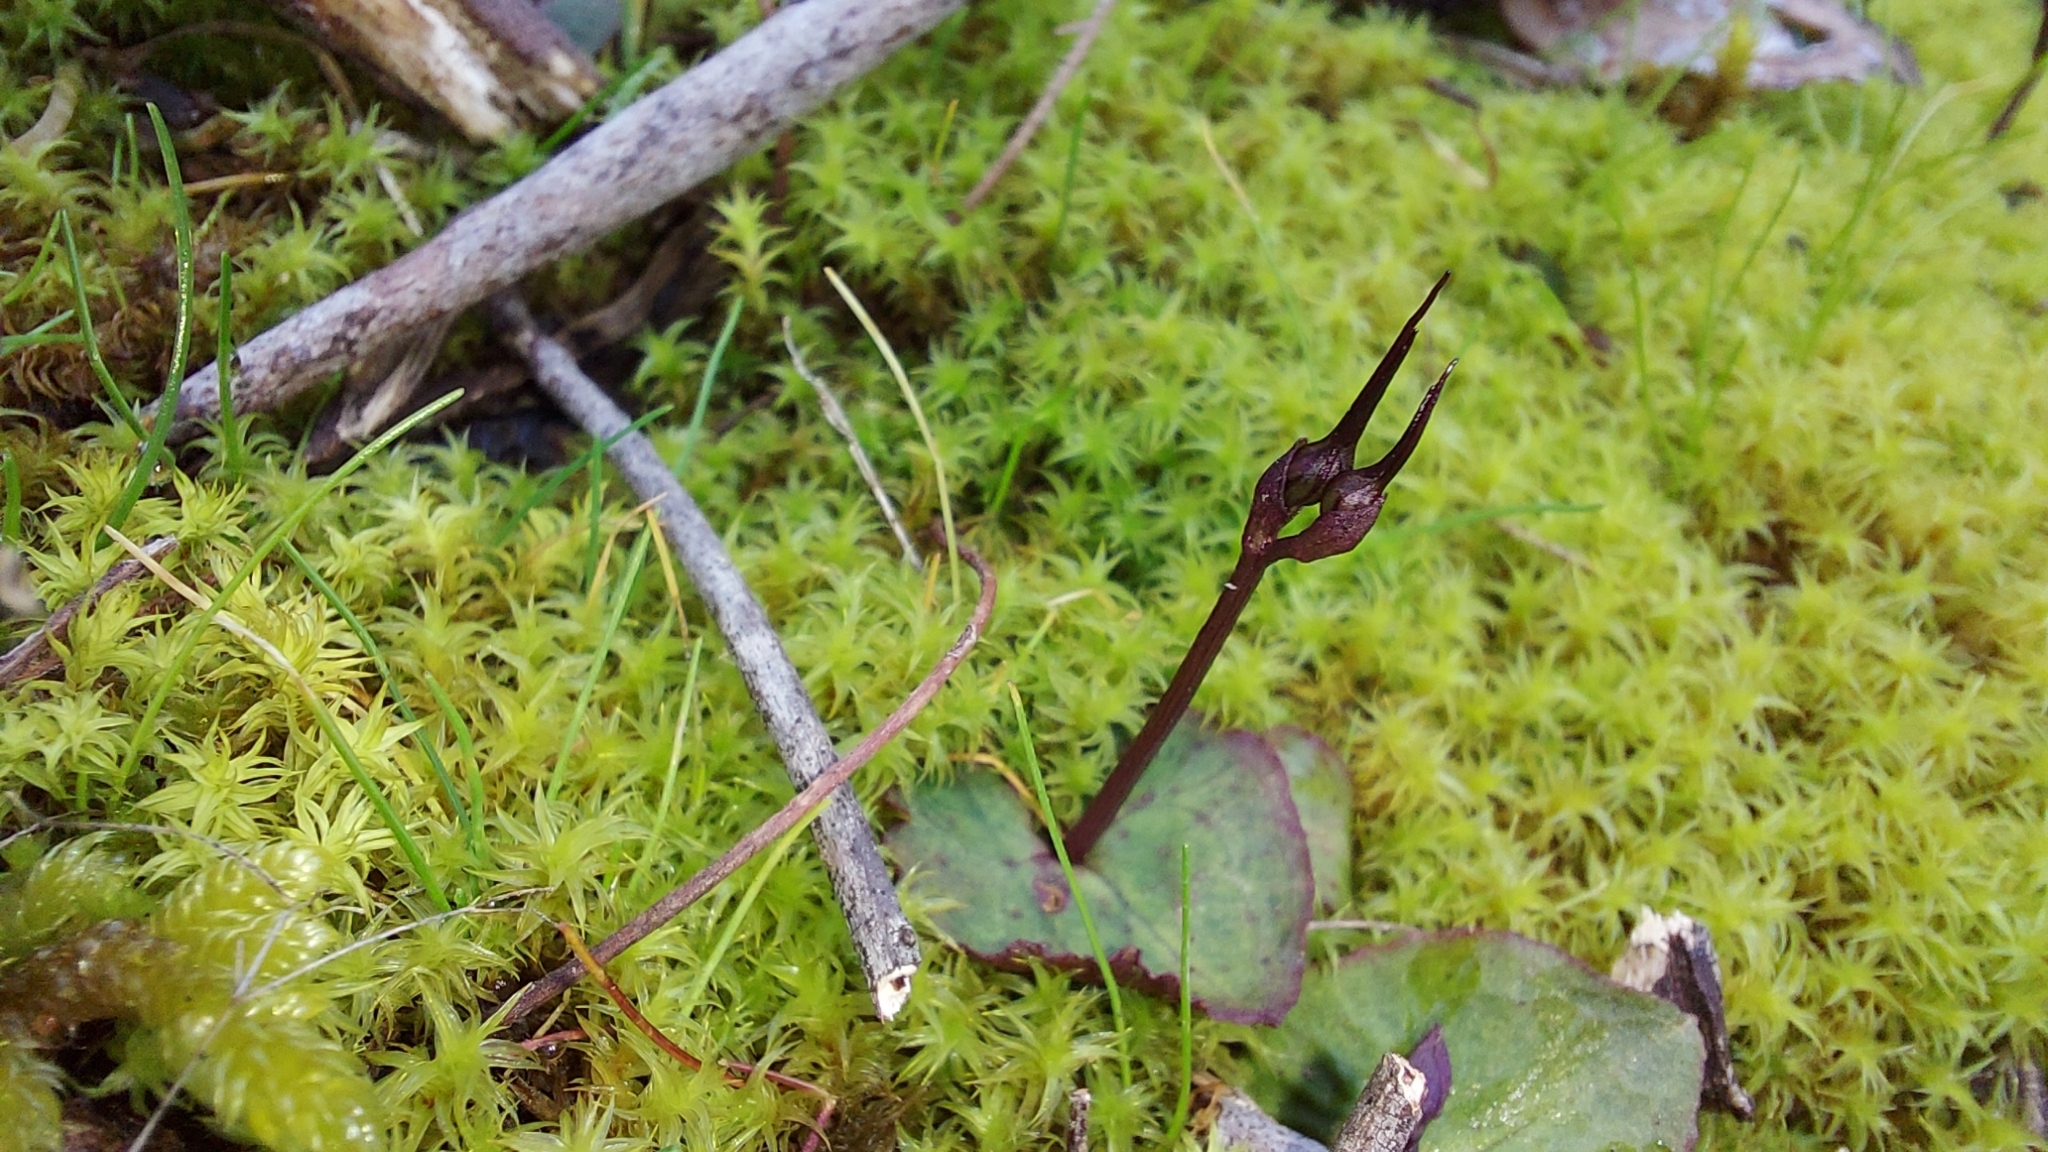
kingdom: Plantae
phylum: Tracheophyta
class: Liliopsida
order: Asparagales
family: Orchidaceae
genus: Acianthus
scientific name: Acianthus caudatus
